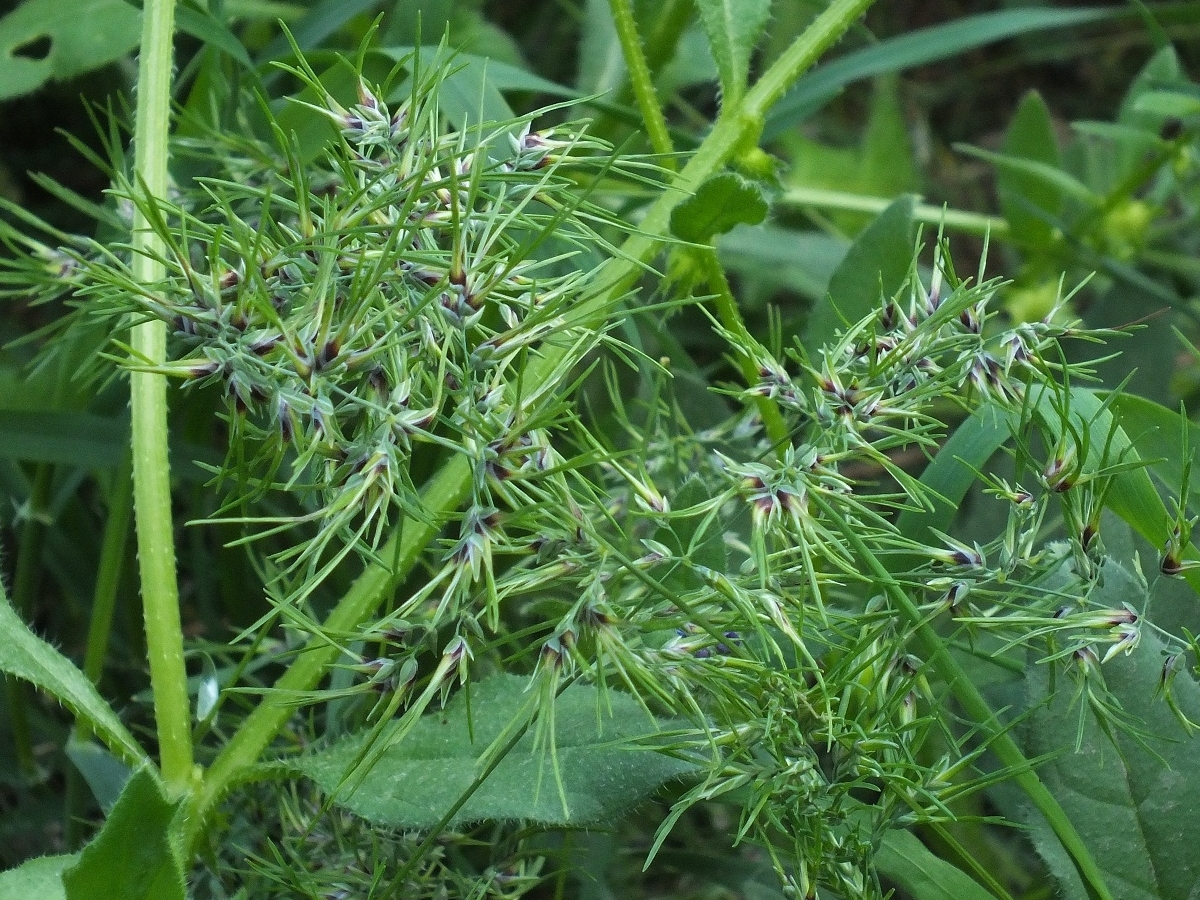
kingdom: Plantae
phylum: Tracheophyta
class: Liliopsida
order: Poales
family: Poaceae
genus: Poa
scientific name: Poa bulbosa
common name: Bulbous bluegrass
